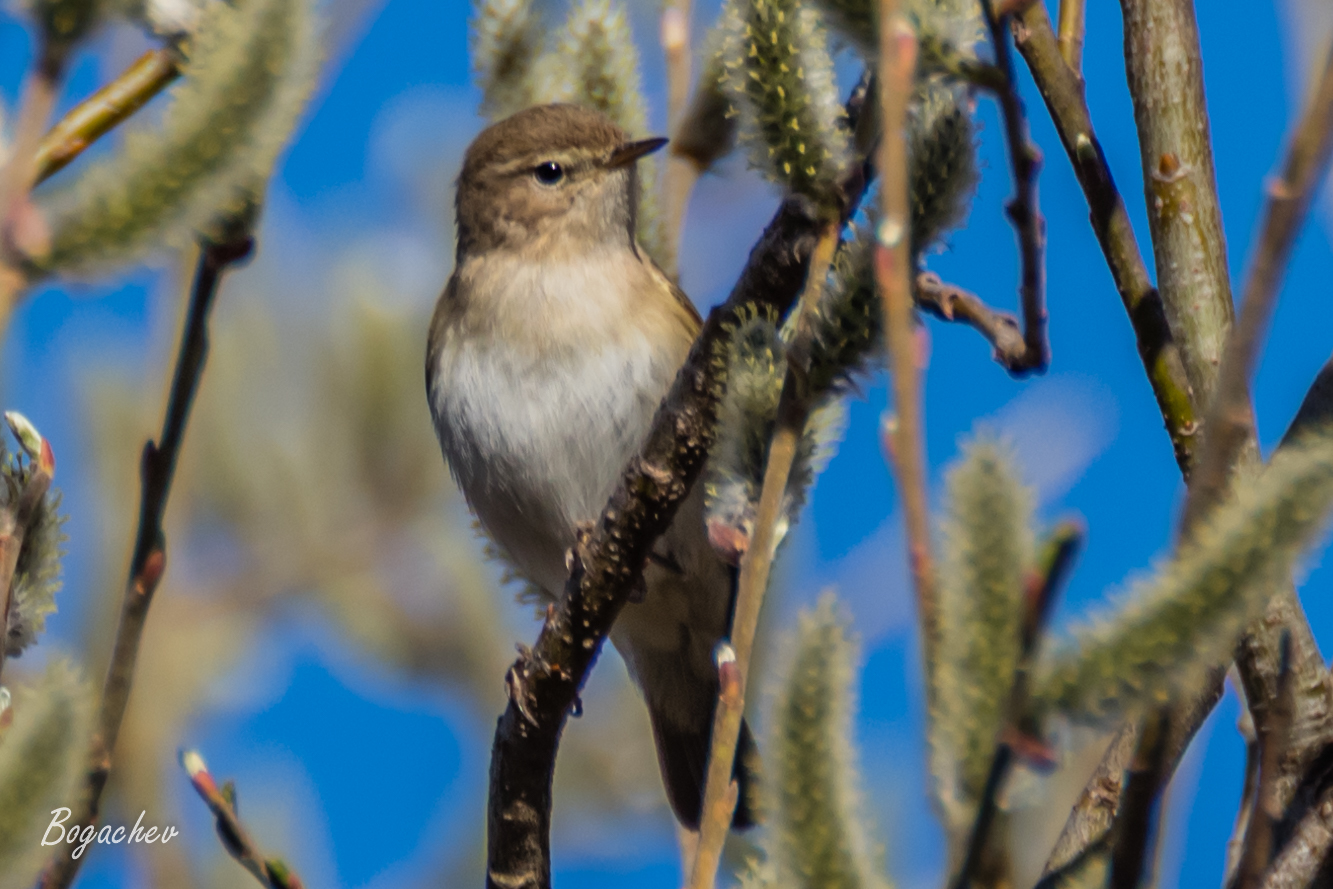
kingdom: Animalia
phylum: Chordata
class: Aves
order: Passeriformes
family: Phylloscopidae
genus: Phylloscopus
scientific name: Phylloscopus collybita
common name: Common chiffchaff
